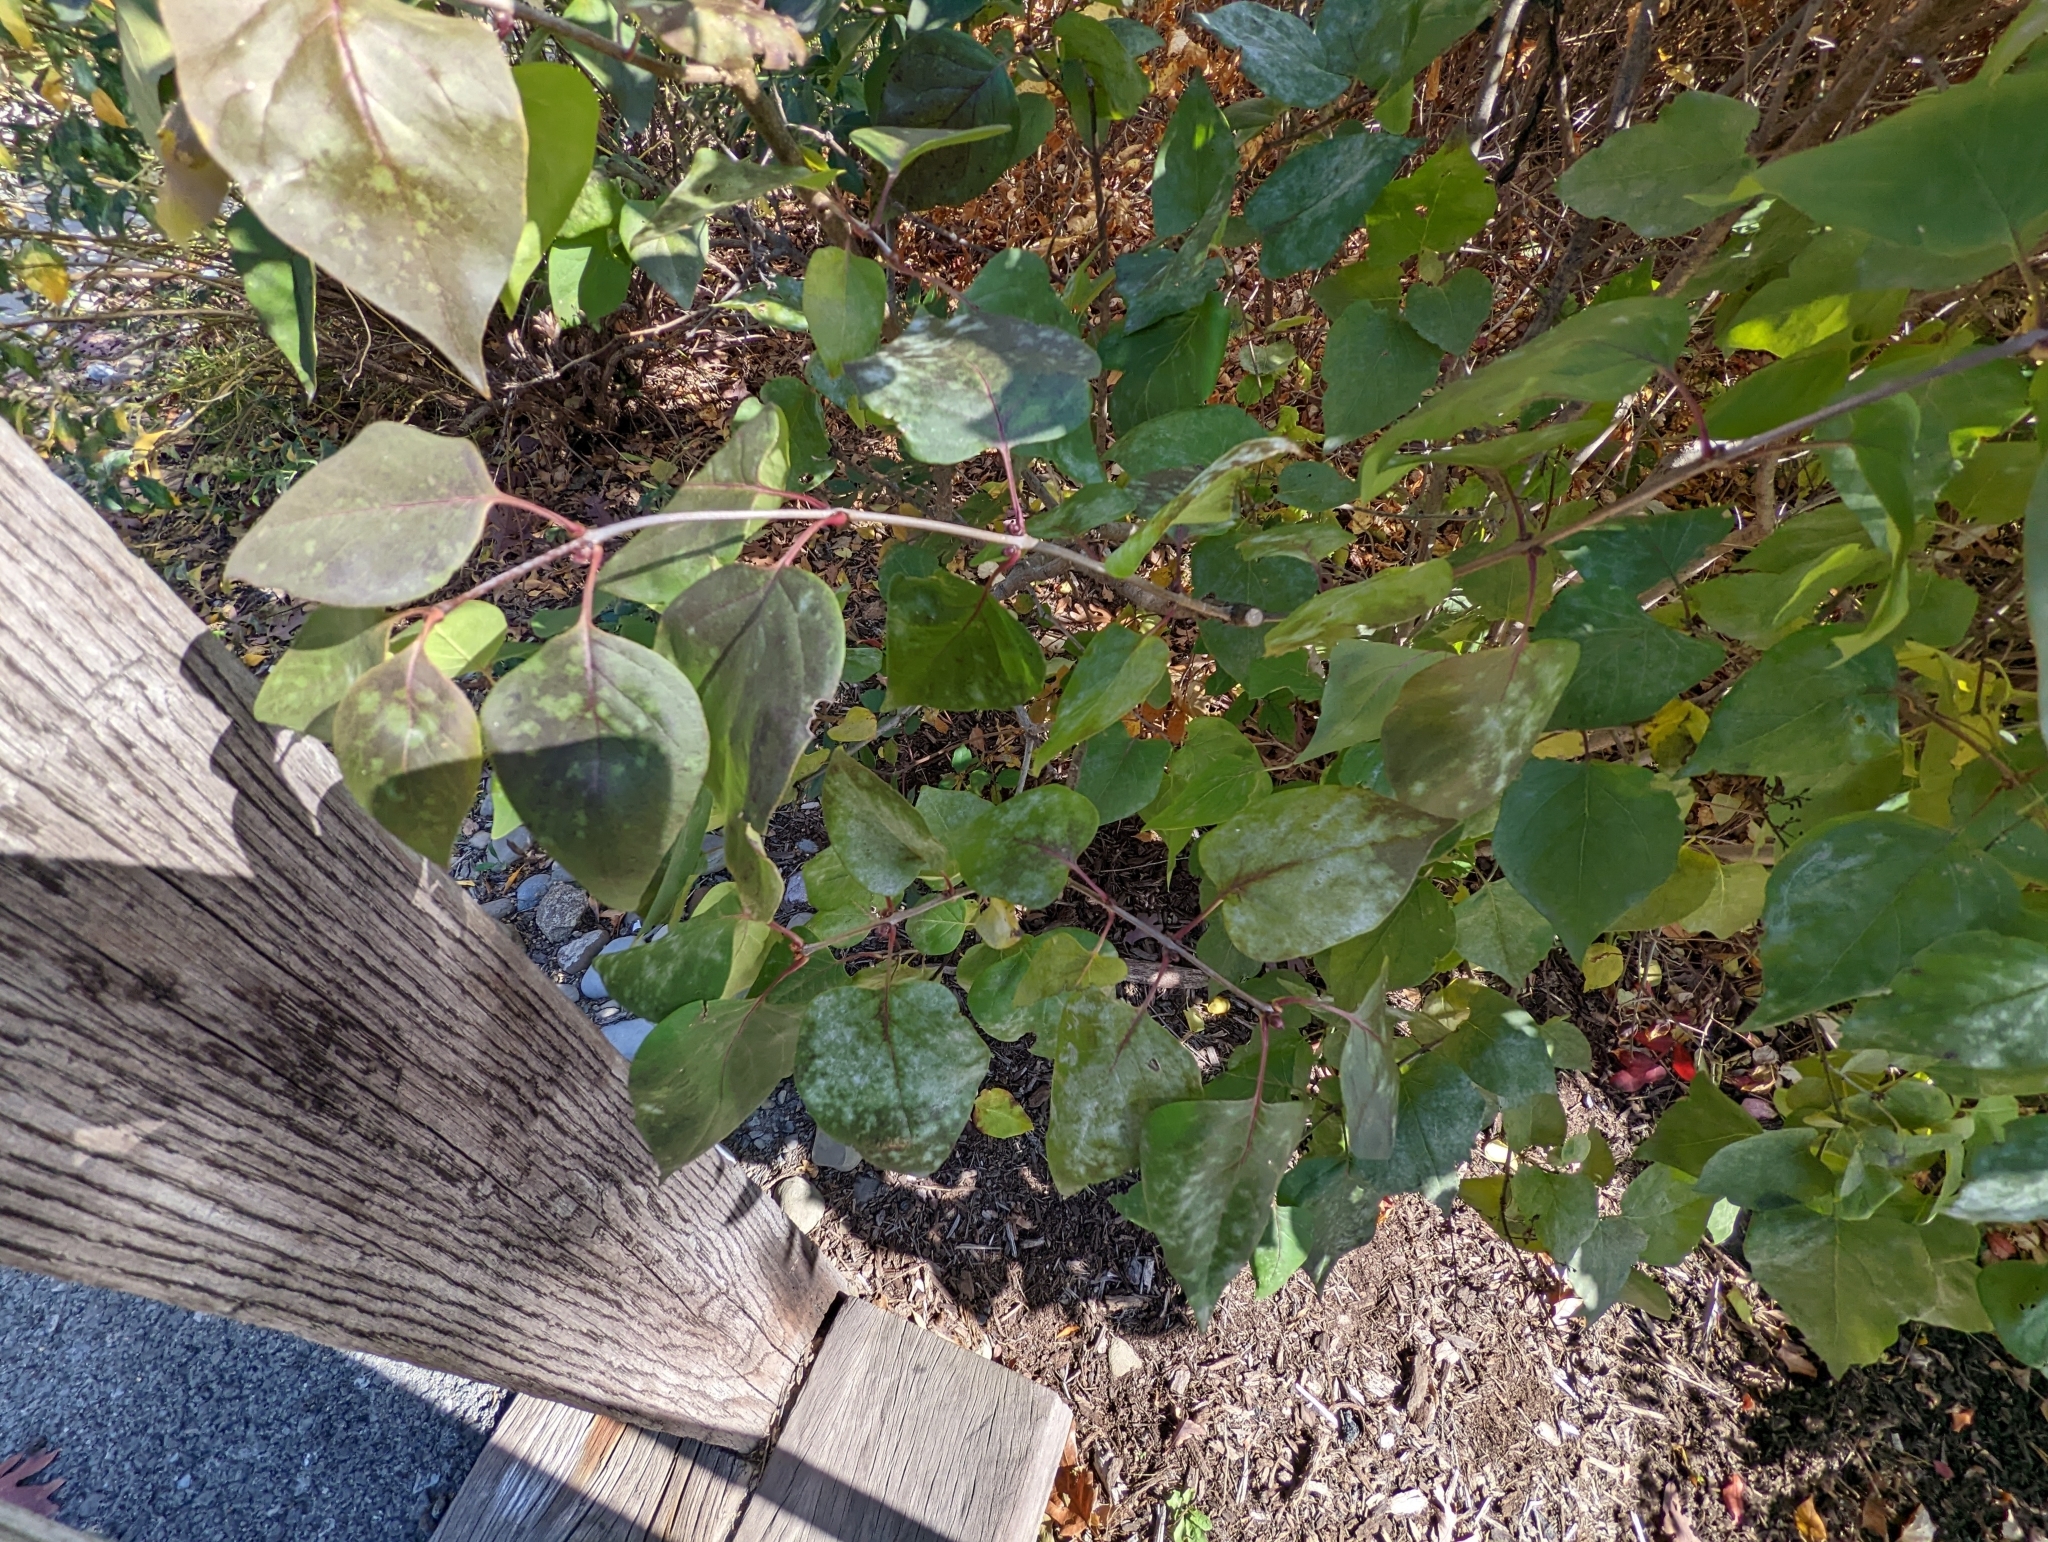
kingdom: Fungi
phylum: Ascomycota
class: Leotiomycetes
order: Helotiales
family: Erysiphaceae
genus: Erysiphe
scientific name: Erysiphe syringae
